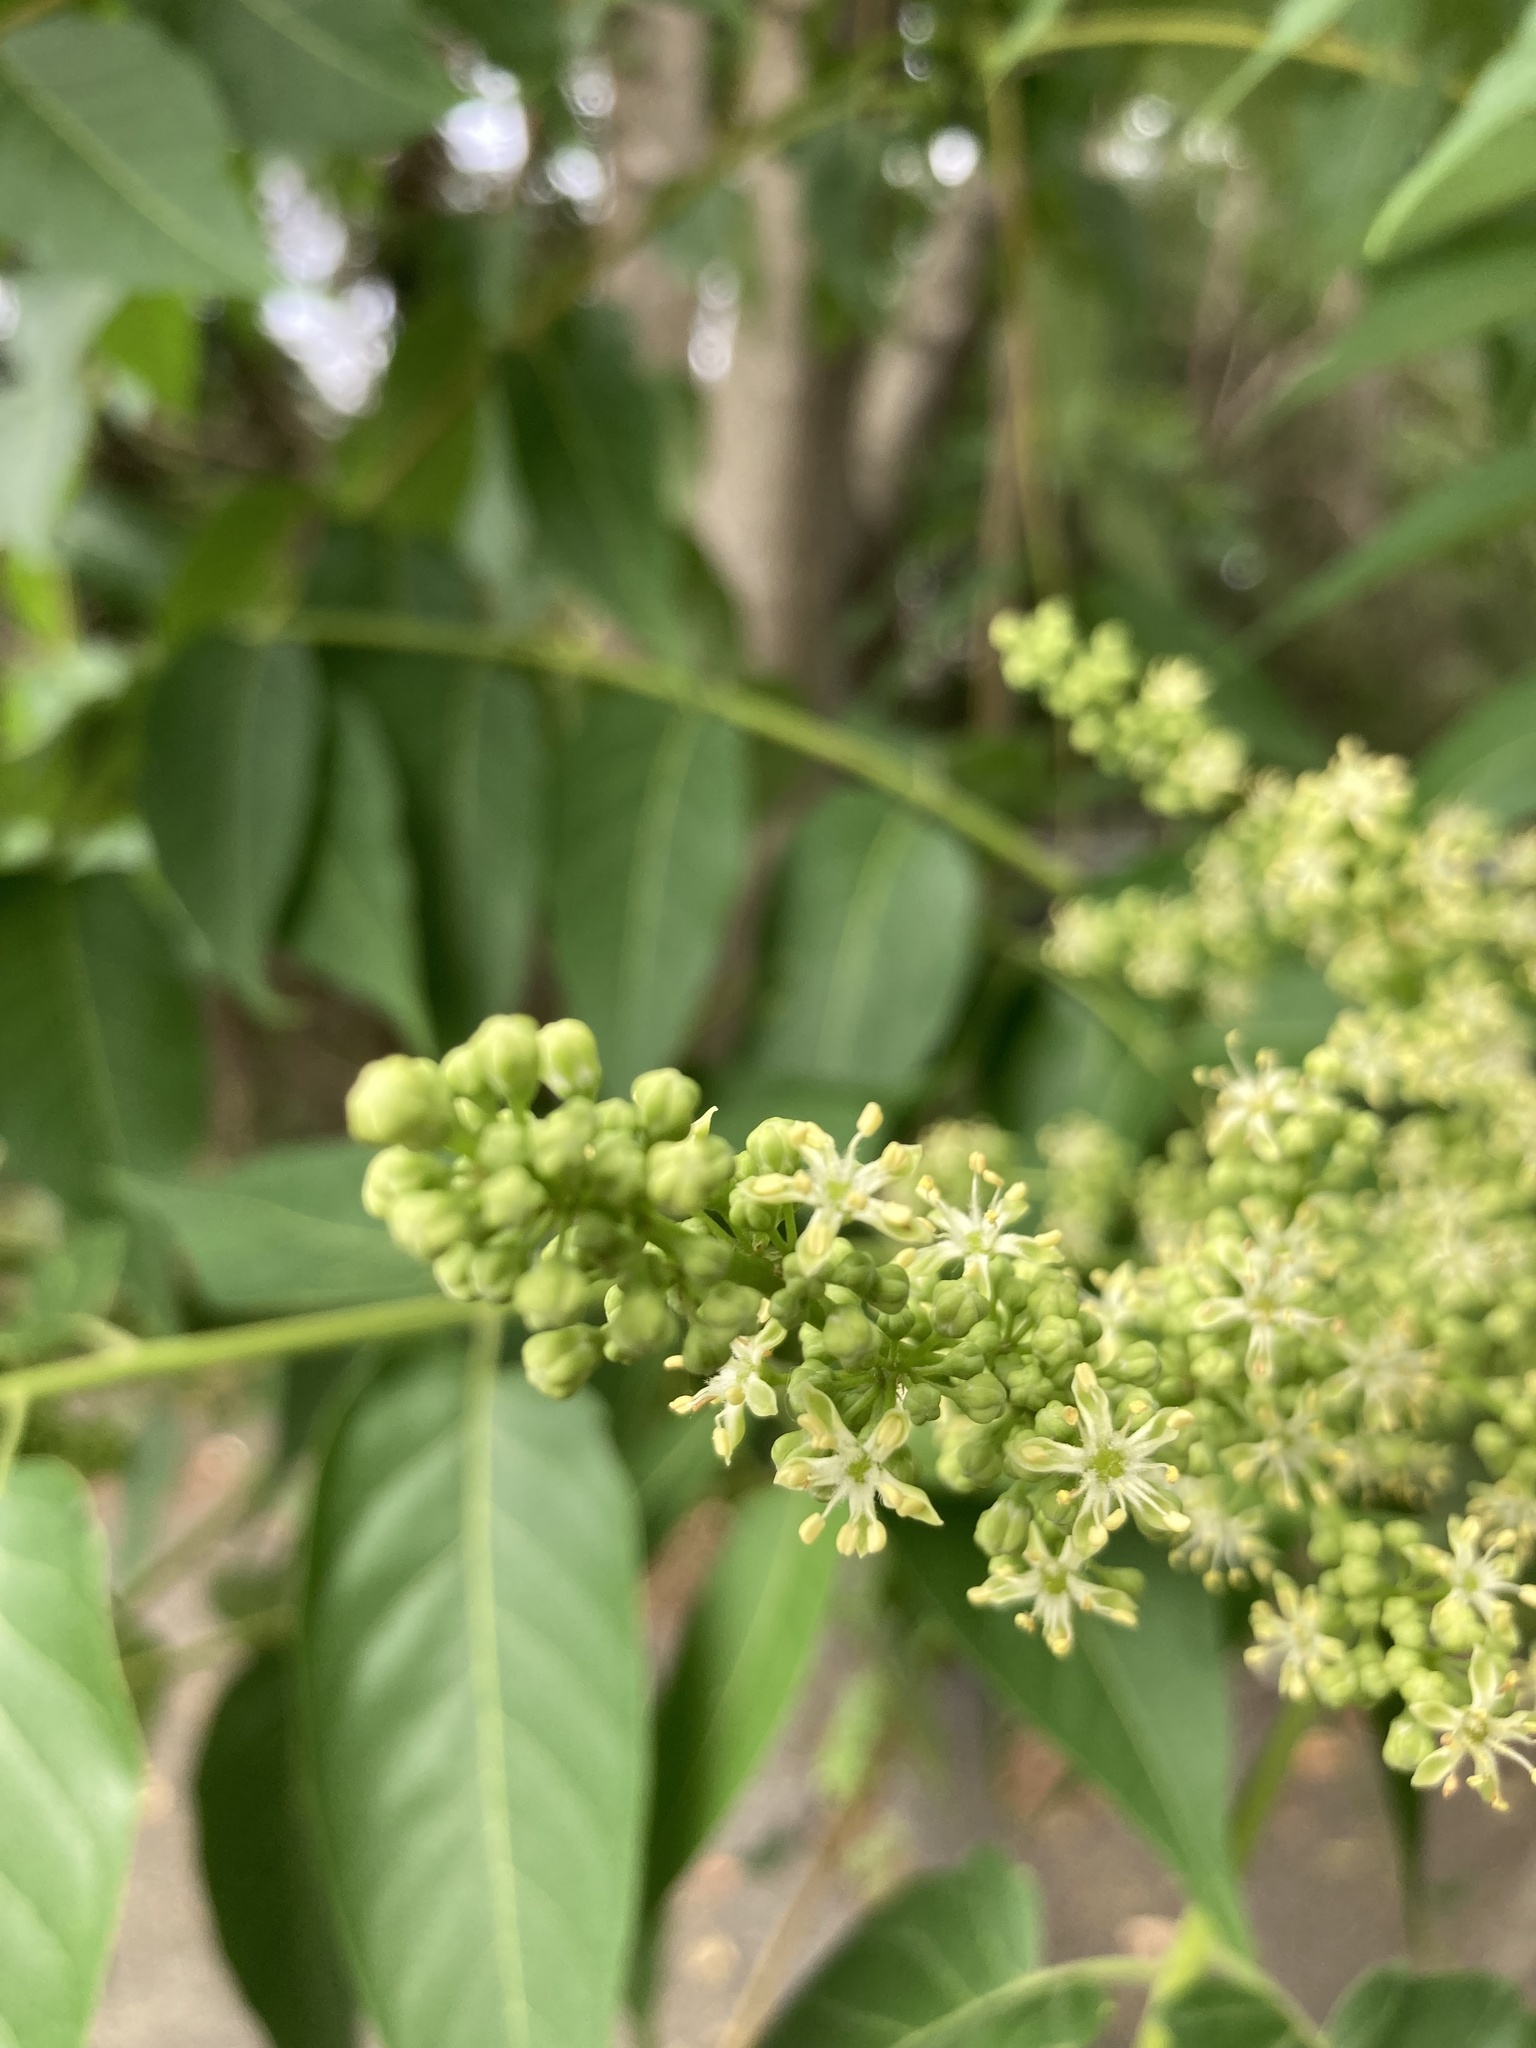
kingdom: Plantae
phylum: Tracheophyta
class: Magnoliopsida
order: Sapindales
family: Simaroubaceae
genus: Ailanthus
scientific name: Ailanthus altissima
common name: Tree-of-heaven
